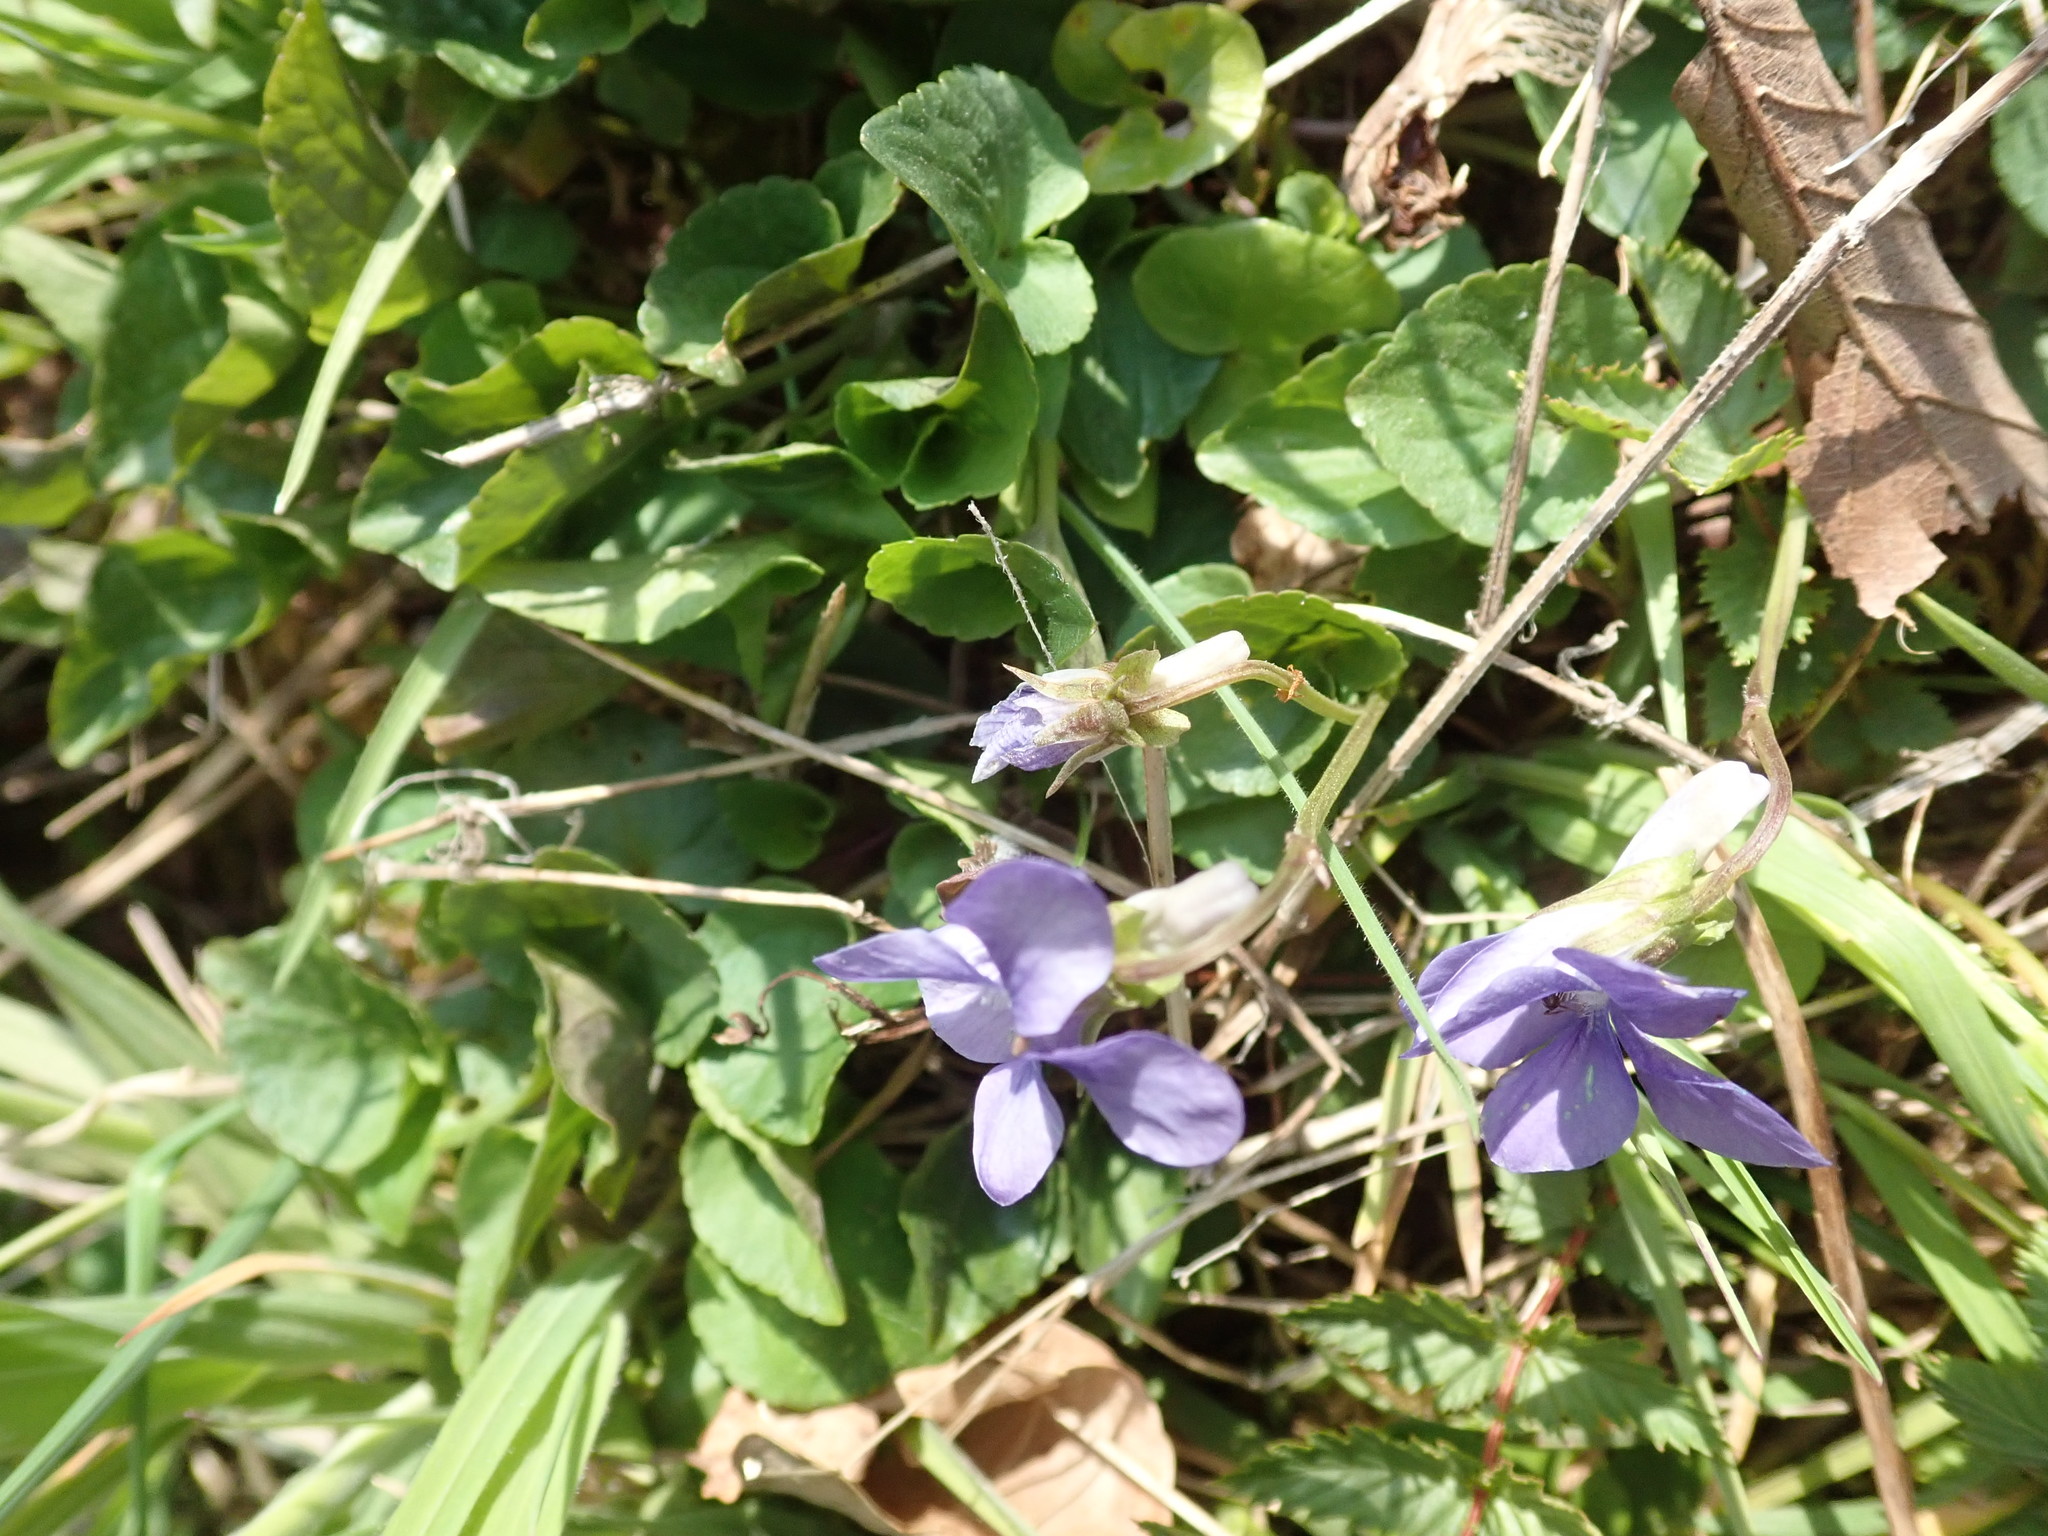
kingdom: Plantae
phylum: Tracheophyta
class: Magnoliopsida
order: Malpighiales
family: Violaceae
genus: Viola
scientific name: Viola riviniana
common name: Common dog-violet
